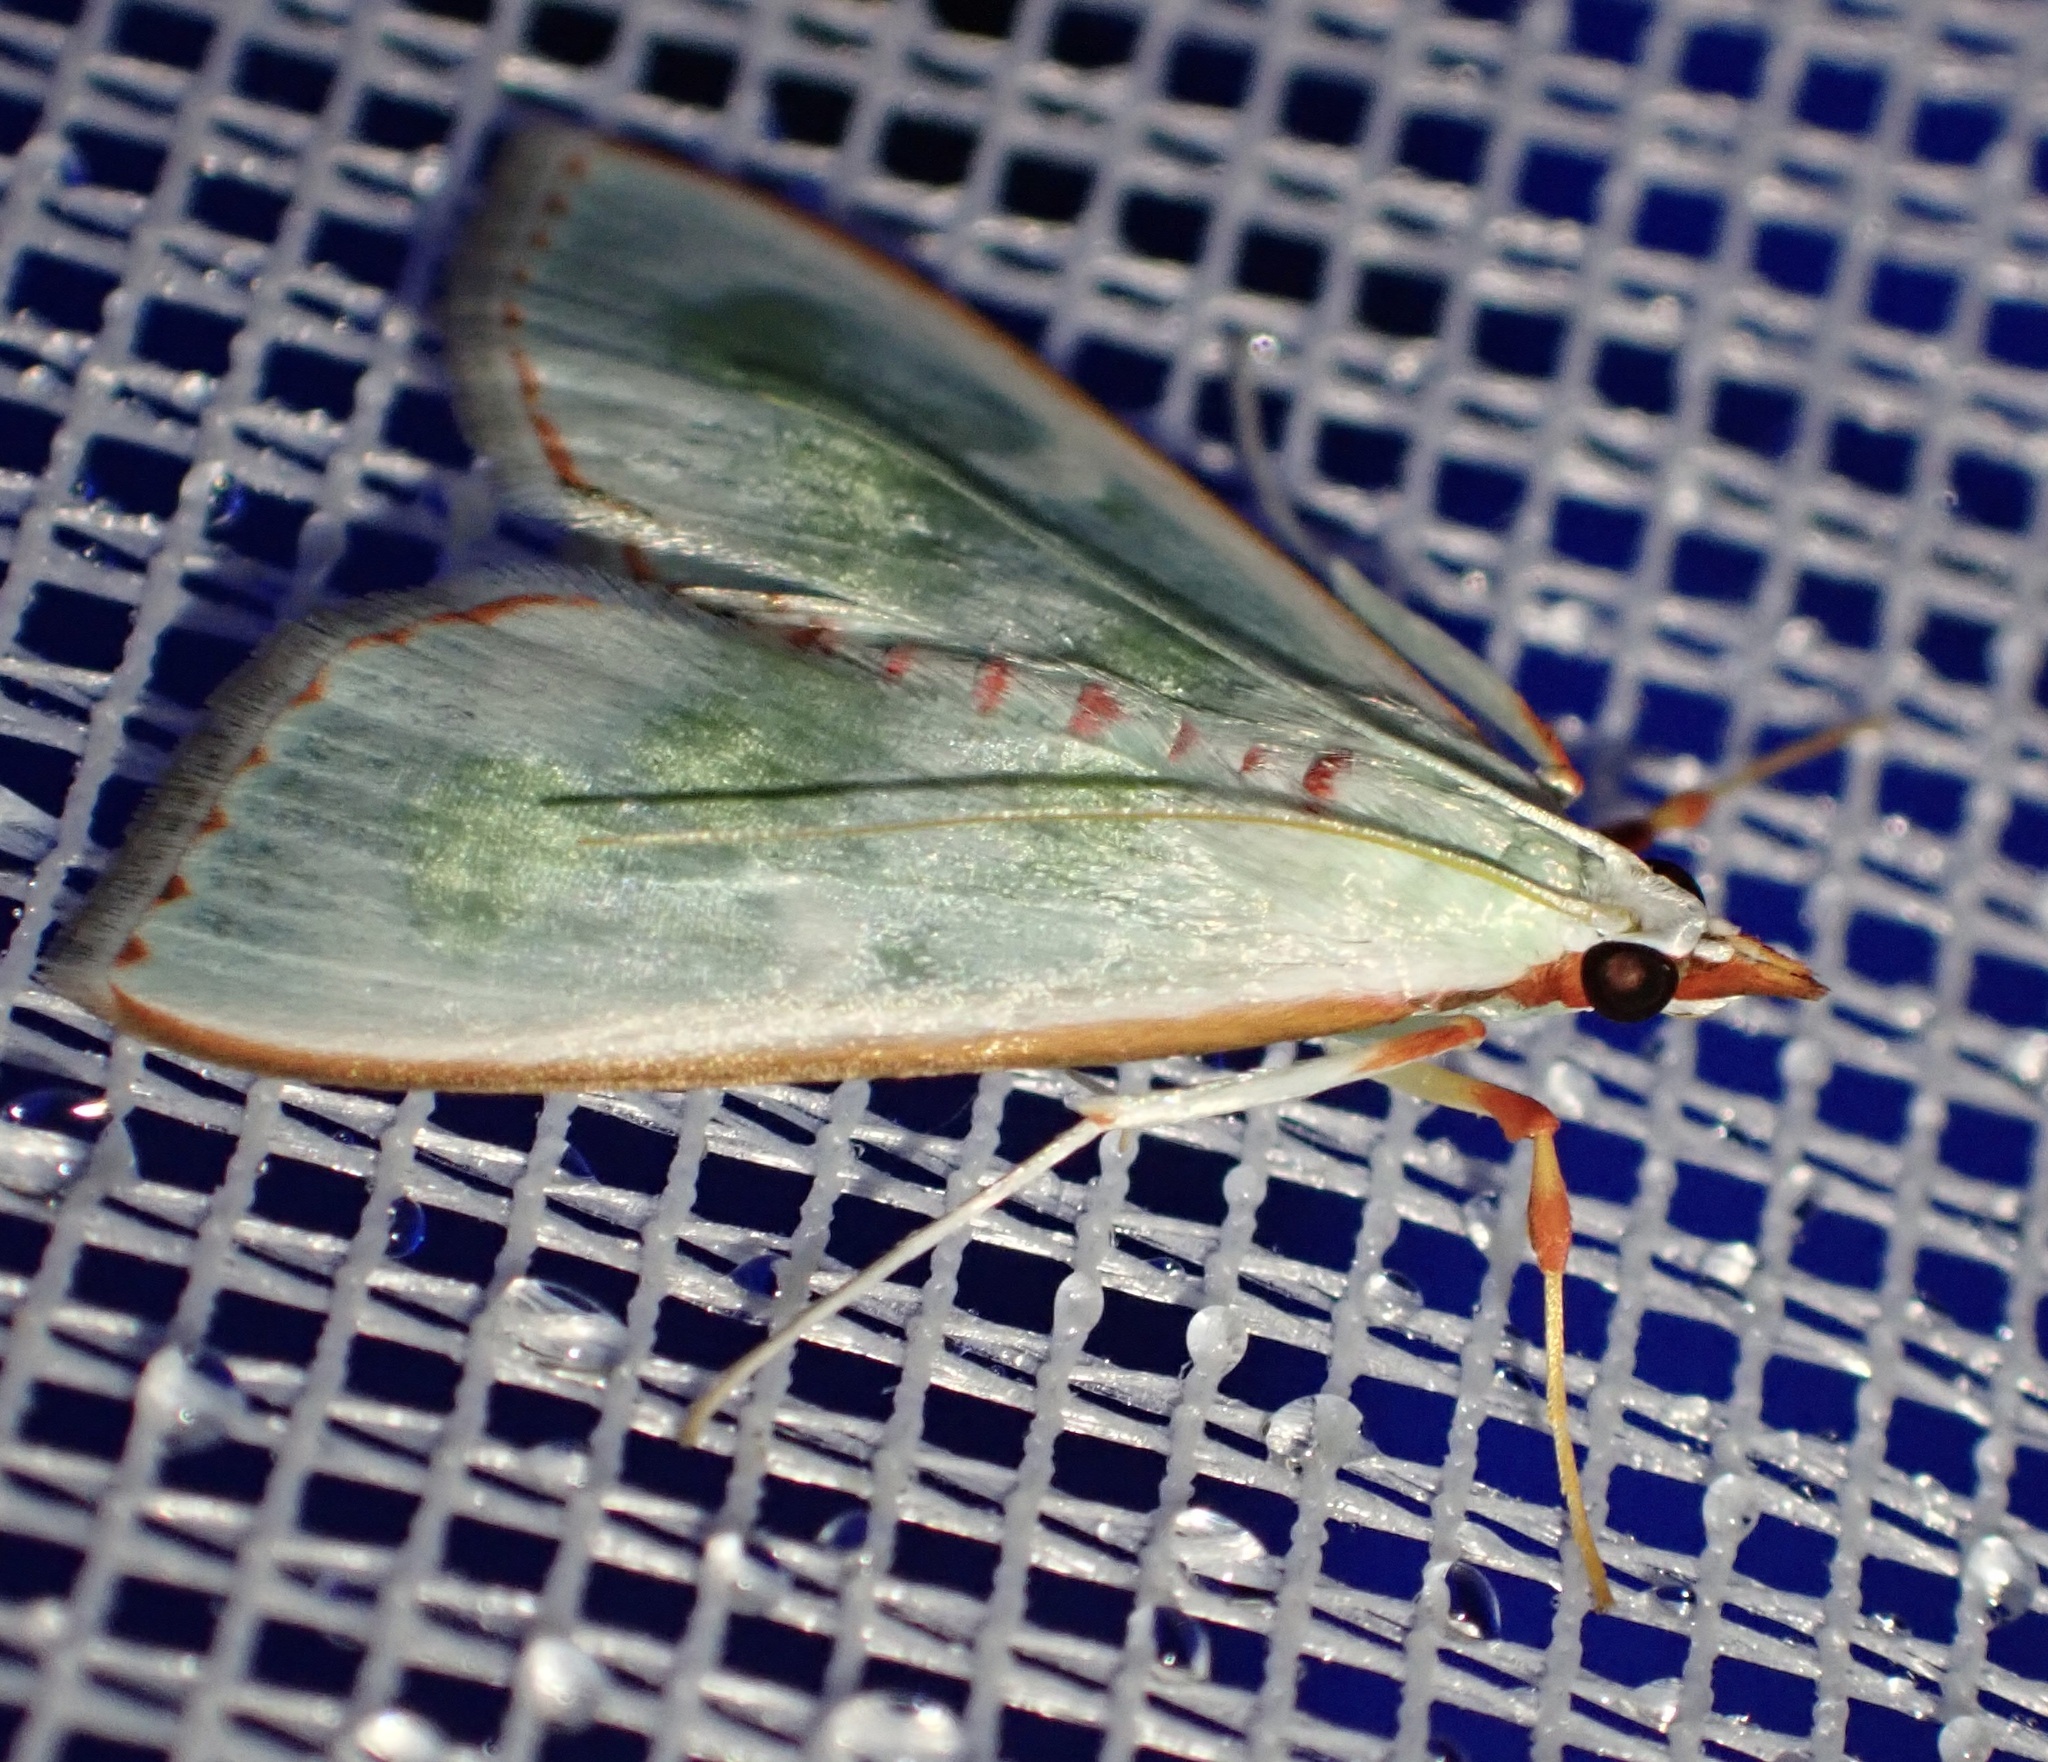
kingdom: Animalia
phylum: Arthropoda
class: Insecta
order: Lepidoptera
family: Crambidae
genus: Arthroschista
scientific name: Arthroschista tricoloralis
